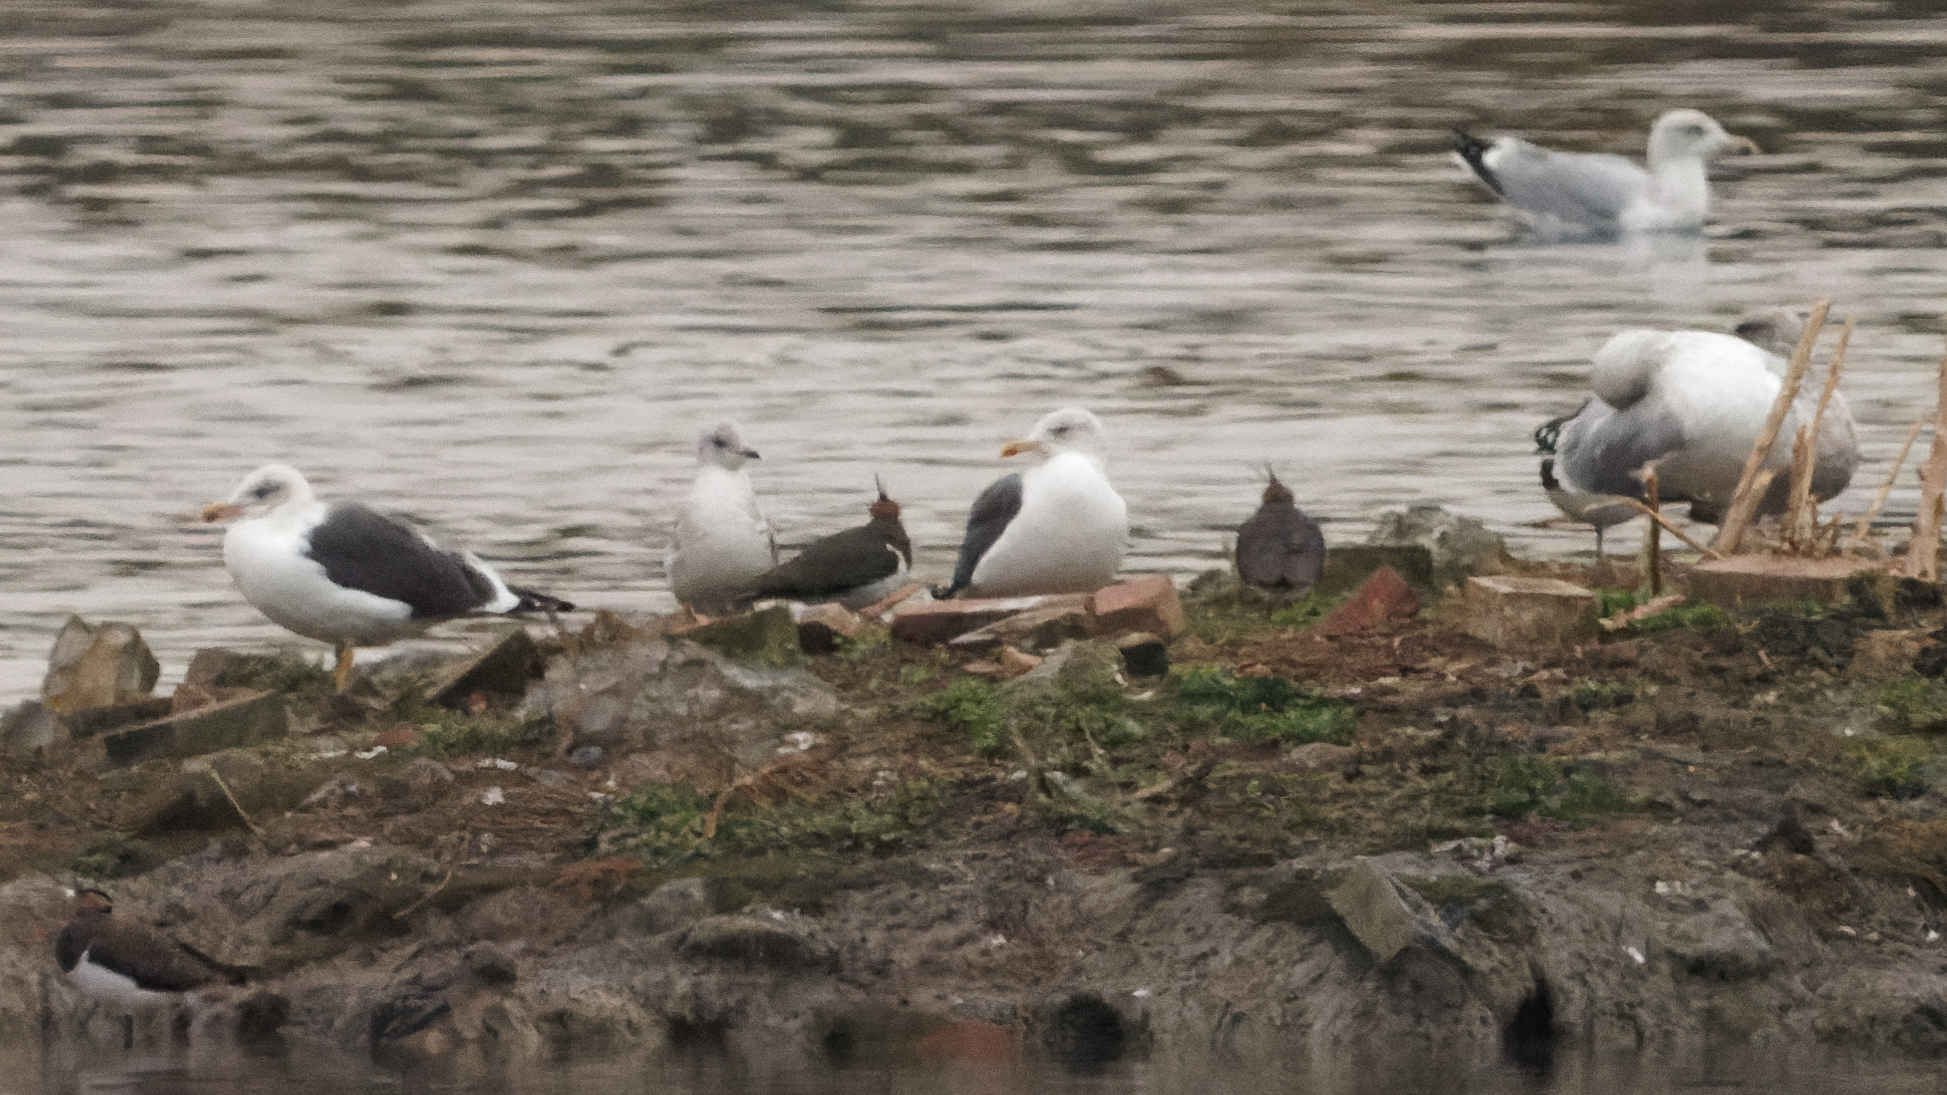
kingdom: Animalia
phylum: Chordata
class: Aves
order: Charadriiformes
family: Laridae
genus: Larus
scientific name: Larus fuscus
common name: Lesser black-backed gull
